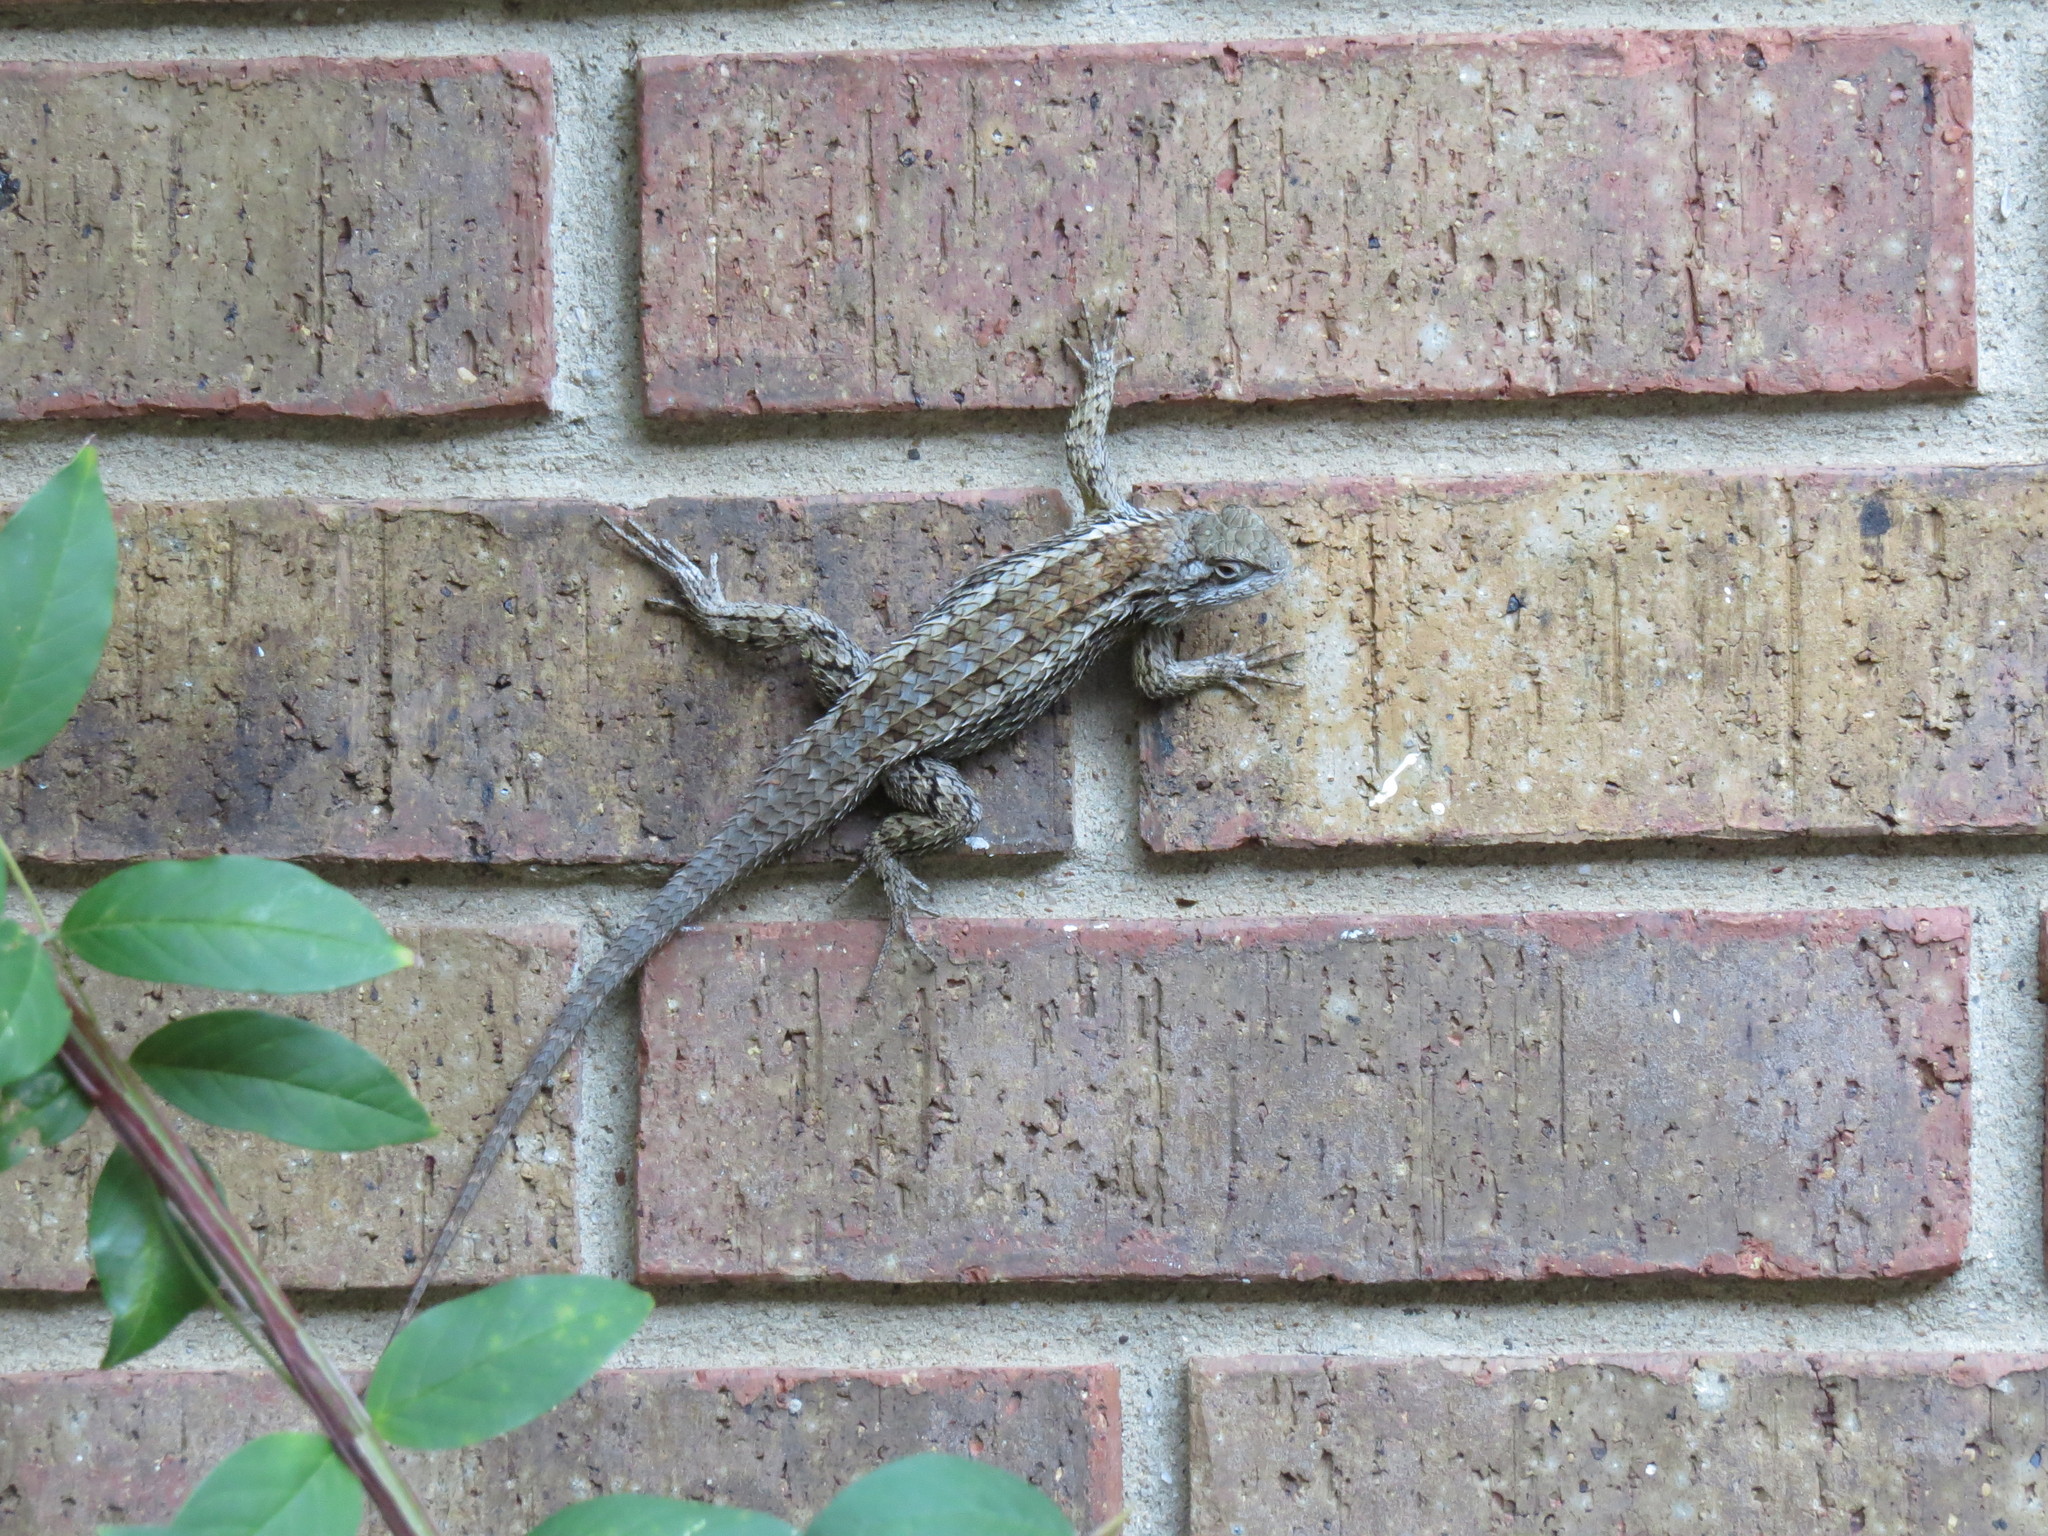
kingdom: Animalia
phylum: Chordata
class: Squamata
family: Phrynosomatidae
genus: Sceloporus
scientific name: Sceloporus olivaceus
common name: Texas spiny lizard
